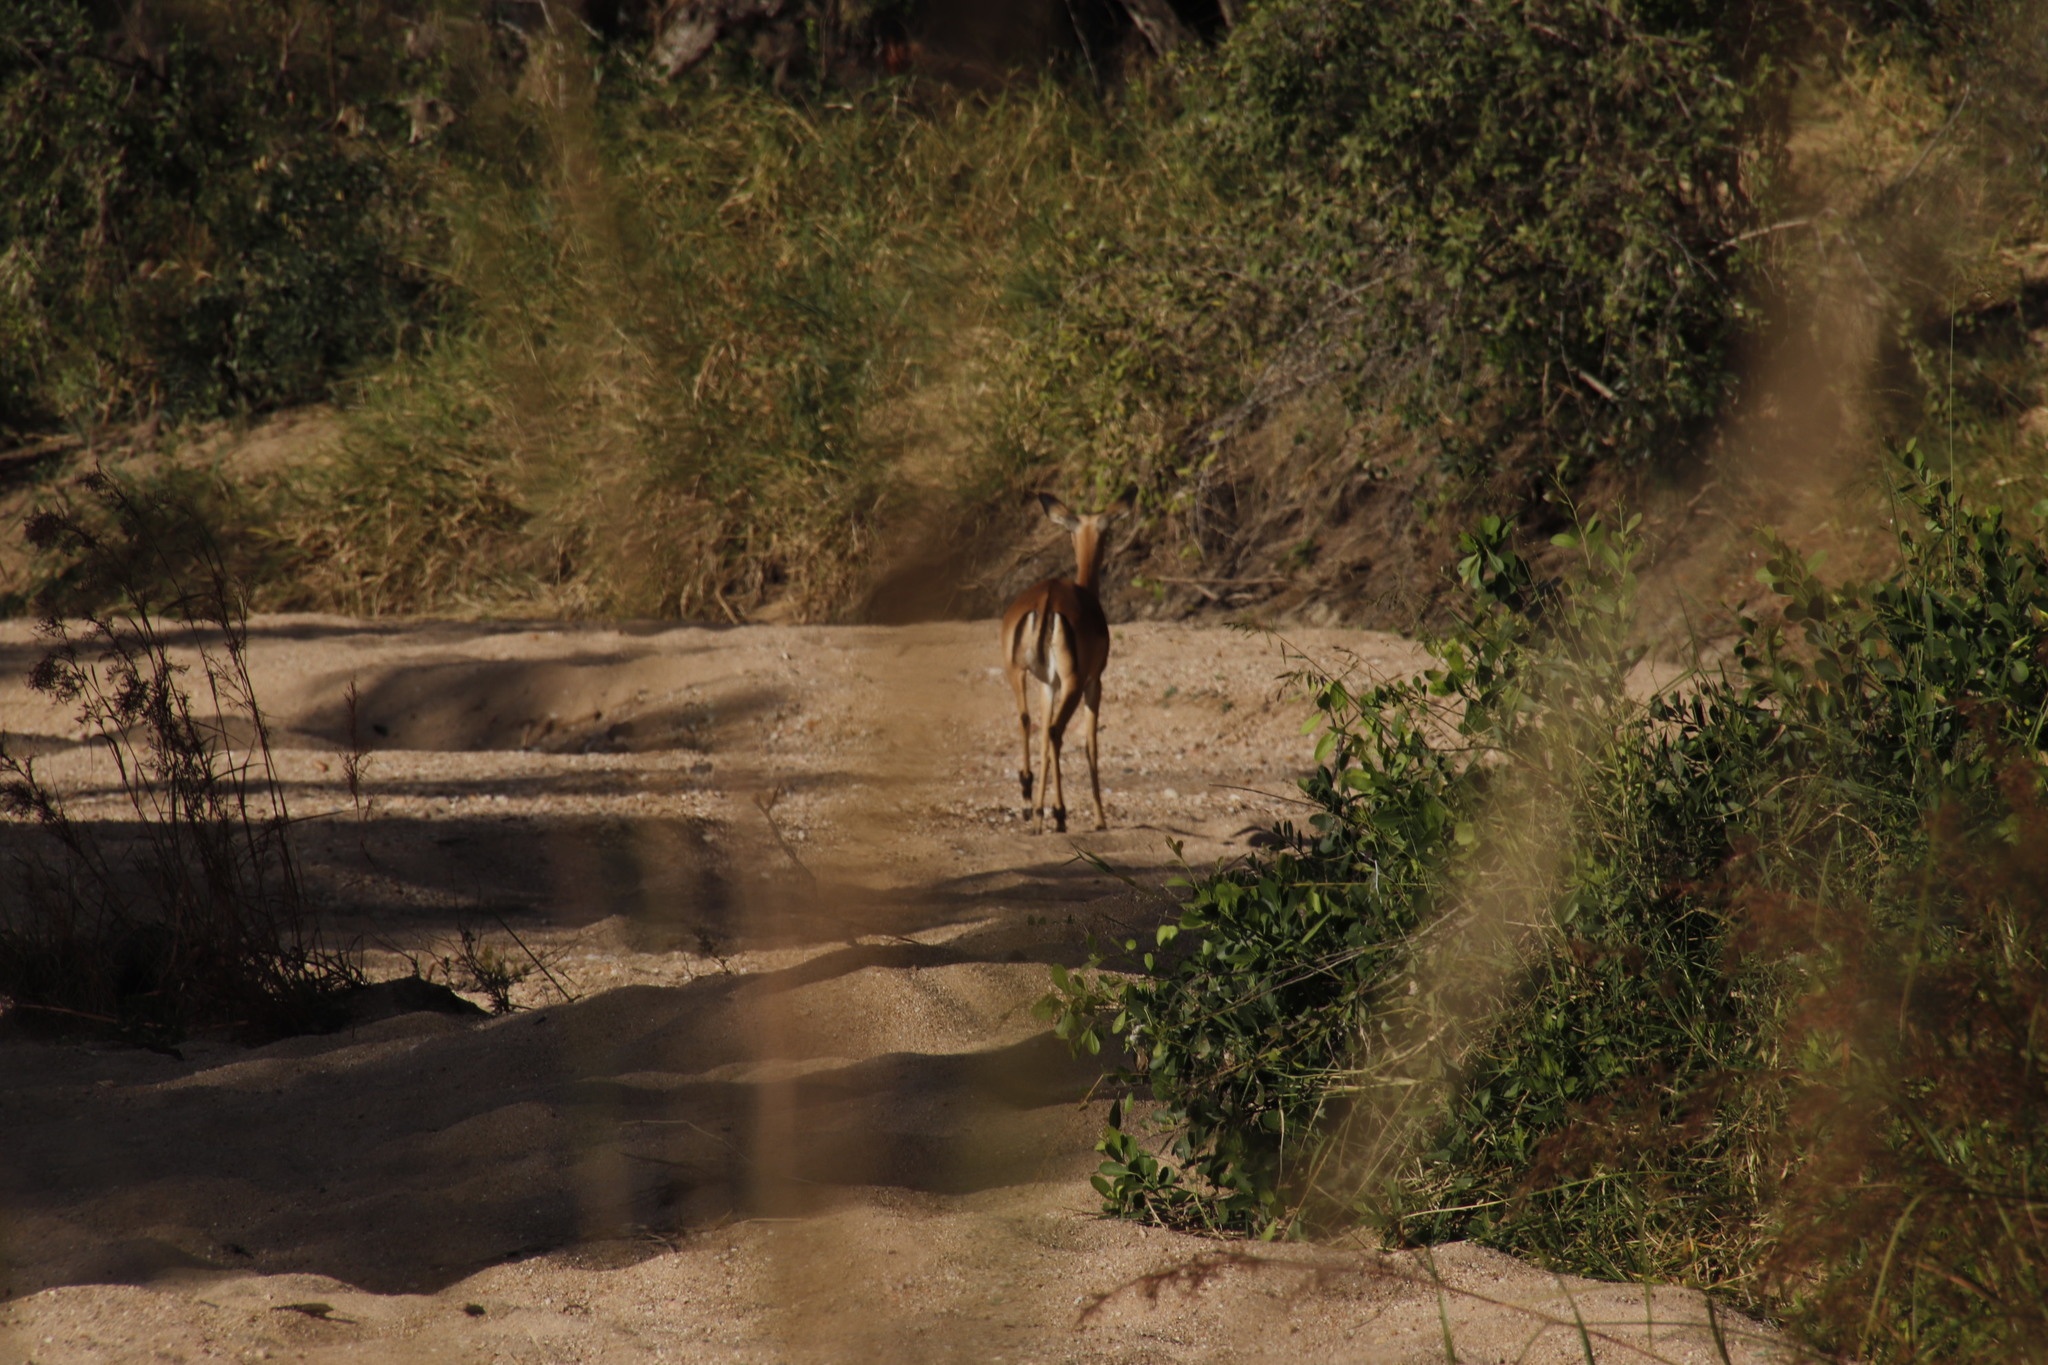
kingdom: Animalia
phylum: Chordata
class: Mammalia
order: Artiodactyla
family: Bovidae
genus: Aepyceros
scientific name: Aepyceros melampus
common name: Impala
